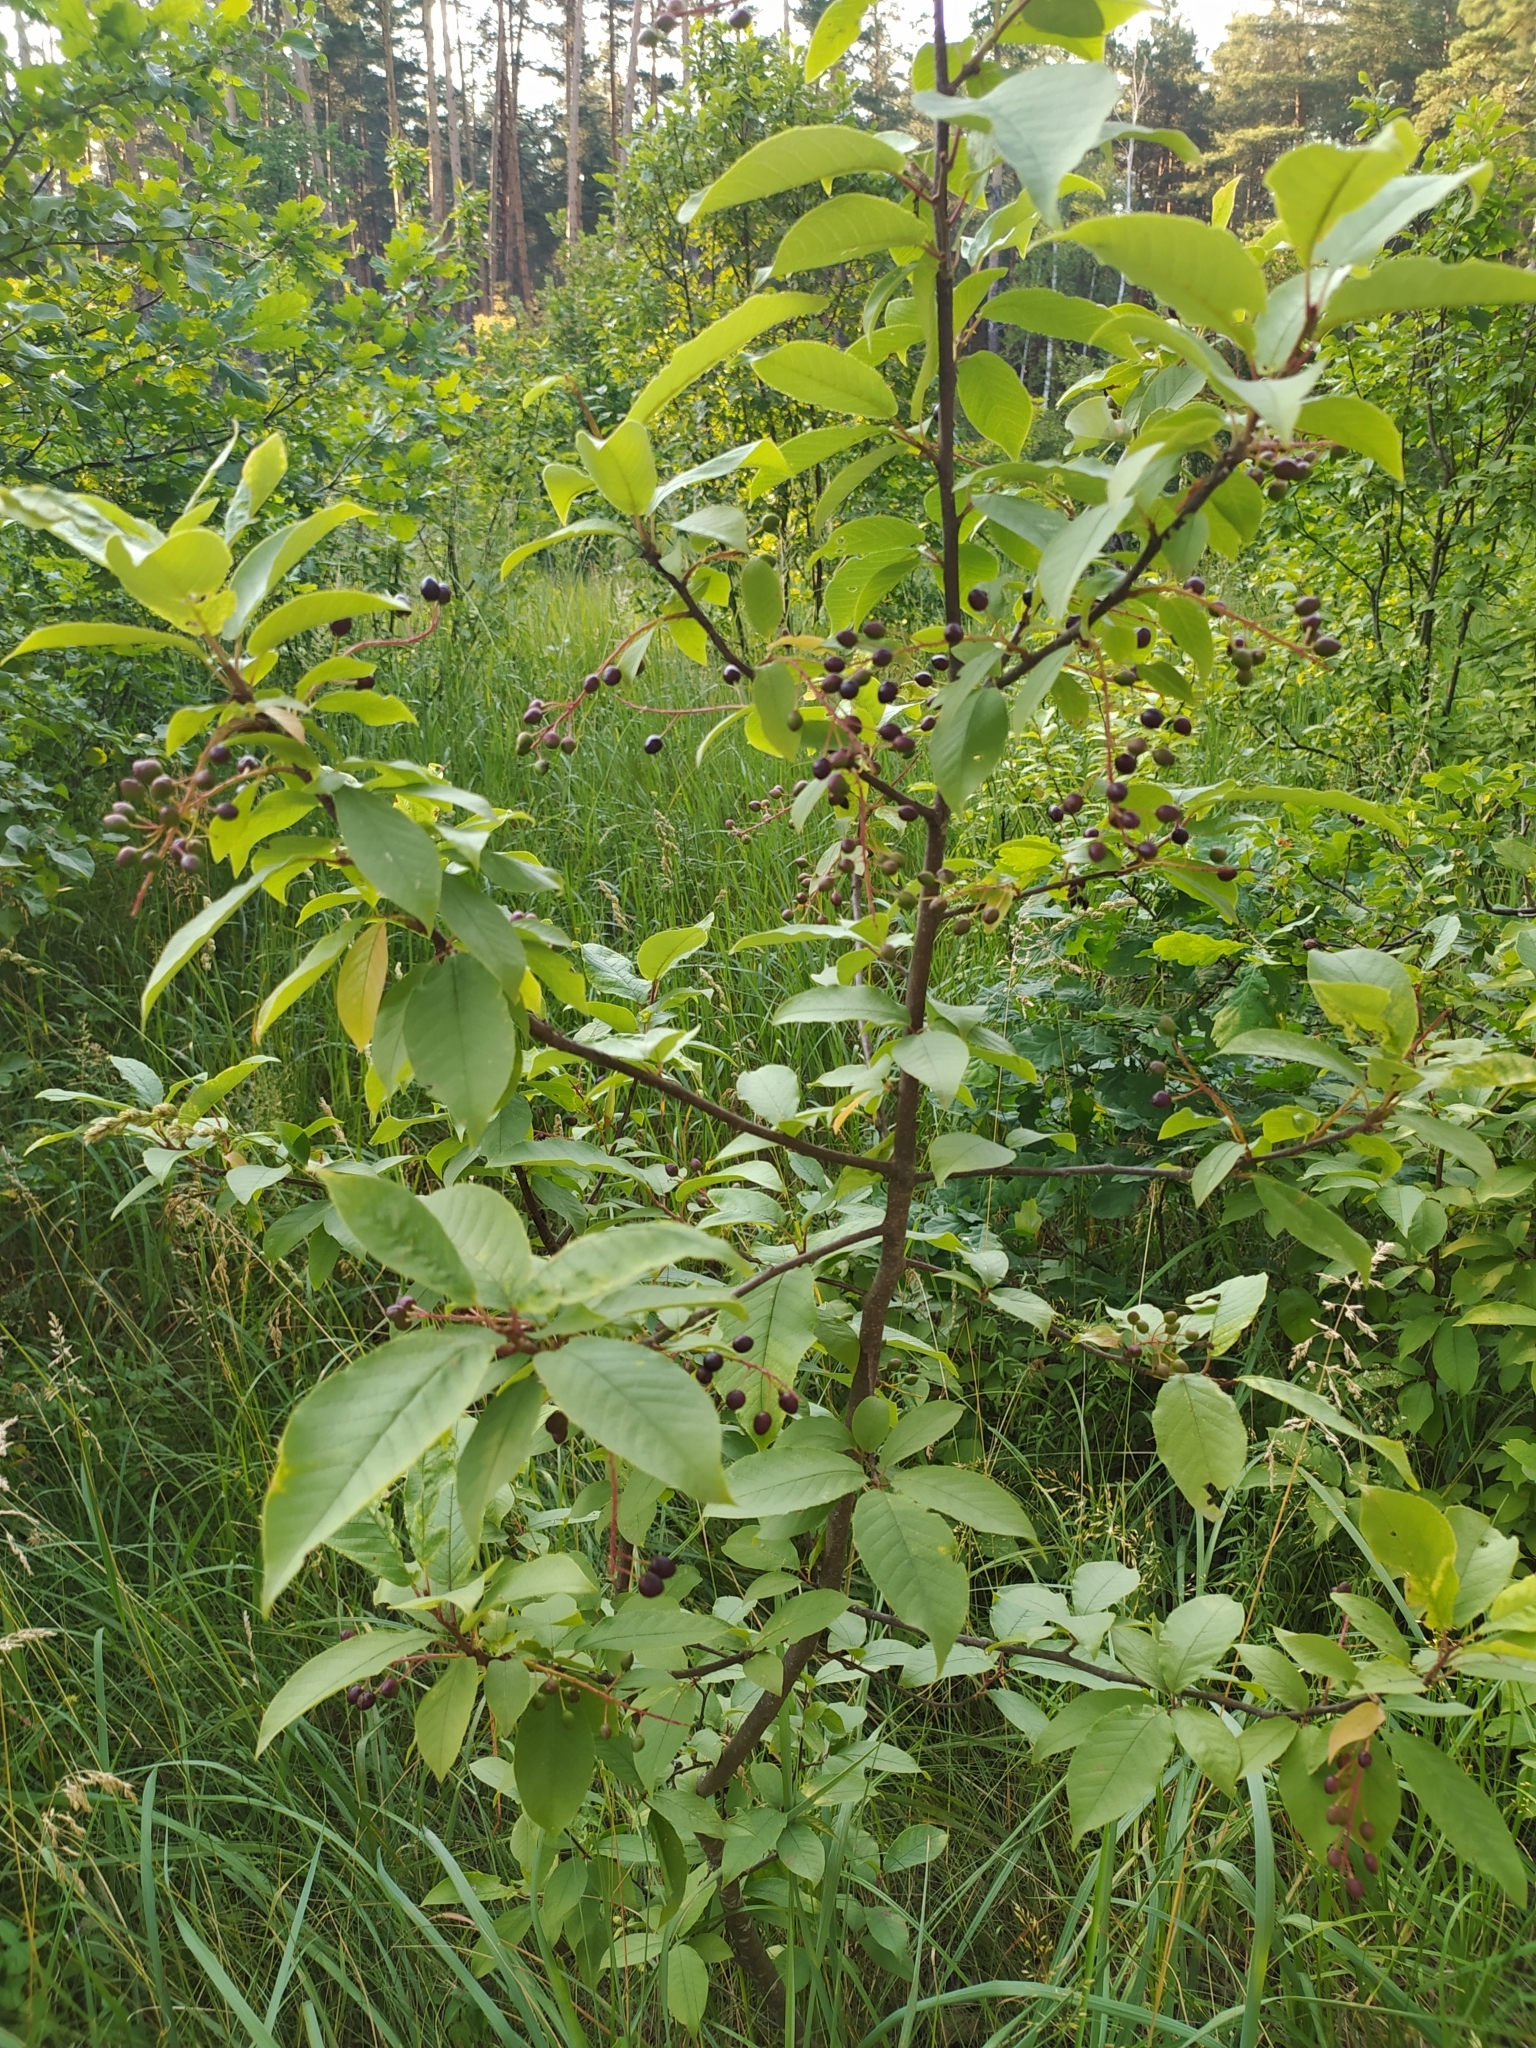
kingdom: Plantae
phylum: Tracheophyta
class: Magnoliopsida
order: Rosales
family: Rosaceae
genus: Prunus
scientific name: Prunus padus
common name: Bird cherry
